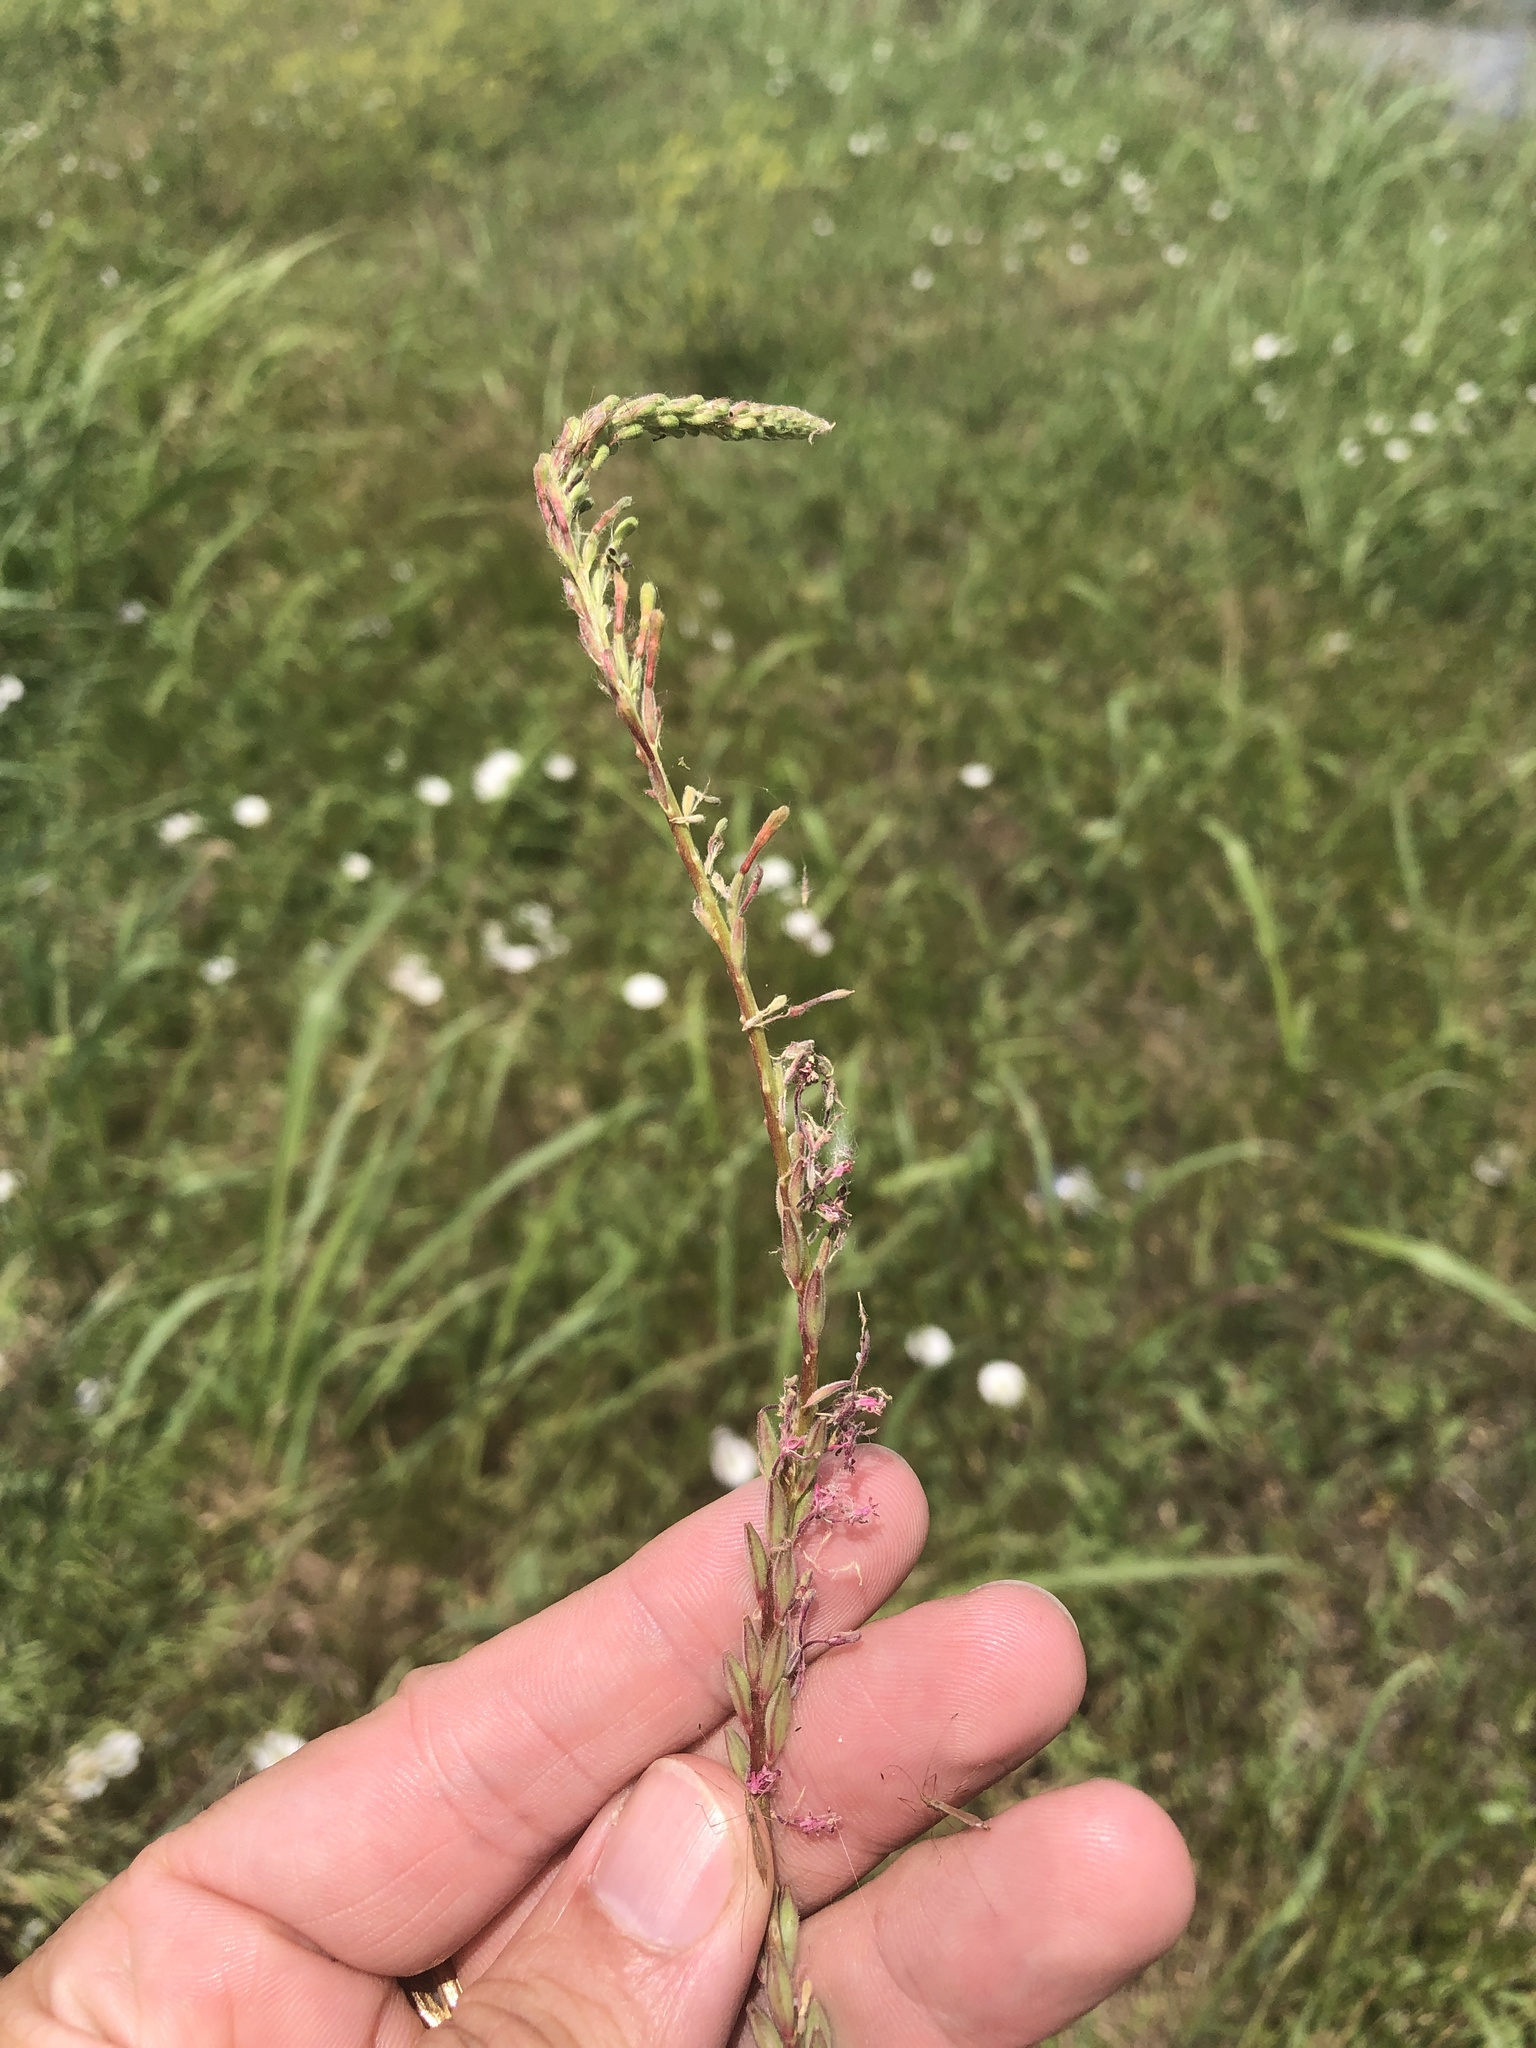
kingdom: Plantae
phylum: Tracheophyta
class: Magnoliopsida
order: Myrtales
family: Onagraceae
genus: Oenothera
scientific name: Oenothera curtiflora
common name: Velvetweed
